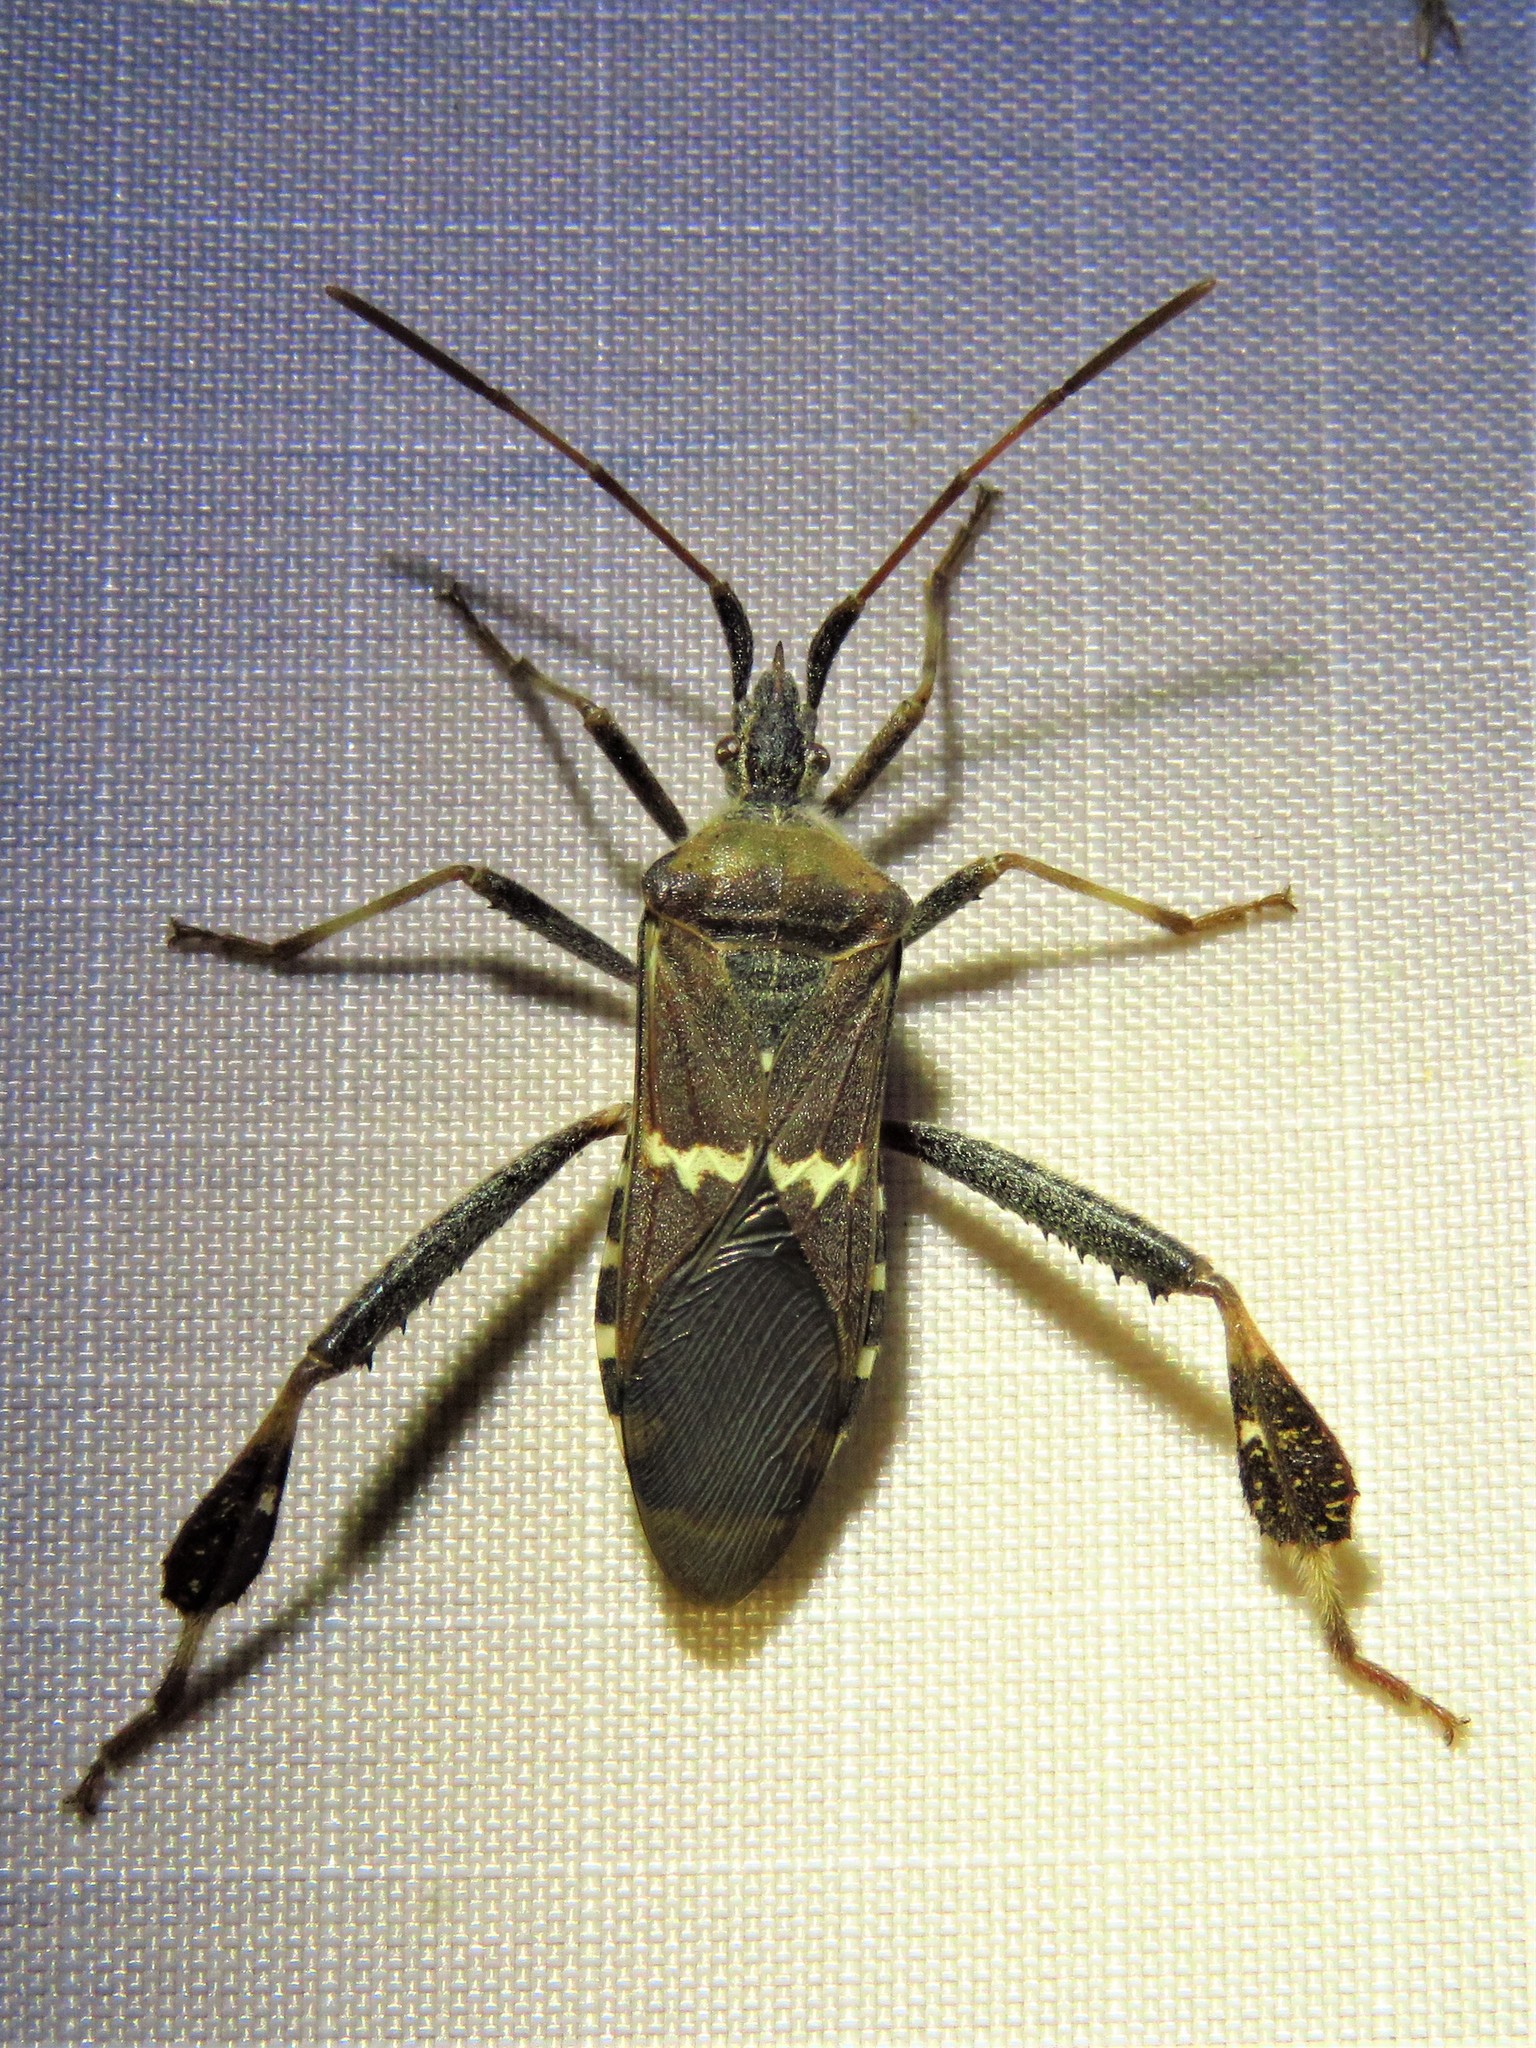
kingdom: Animalia
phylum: Arthropoda
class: Insecta
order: Hemiptera
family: Coreidae
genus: Leptoglossus
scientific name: Leptoglossus clypealis
